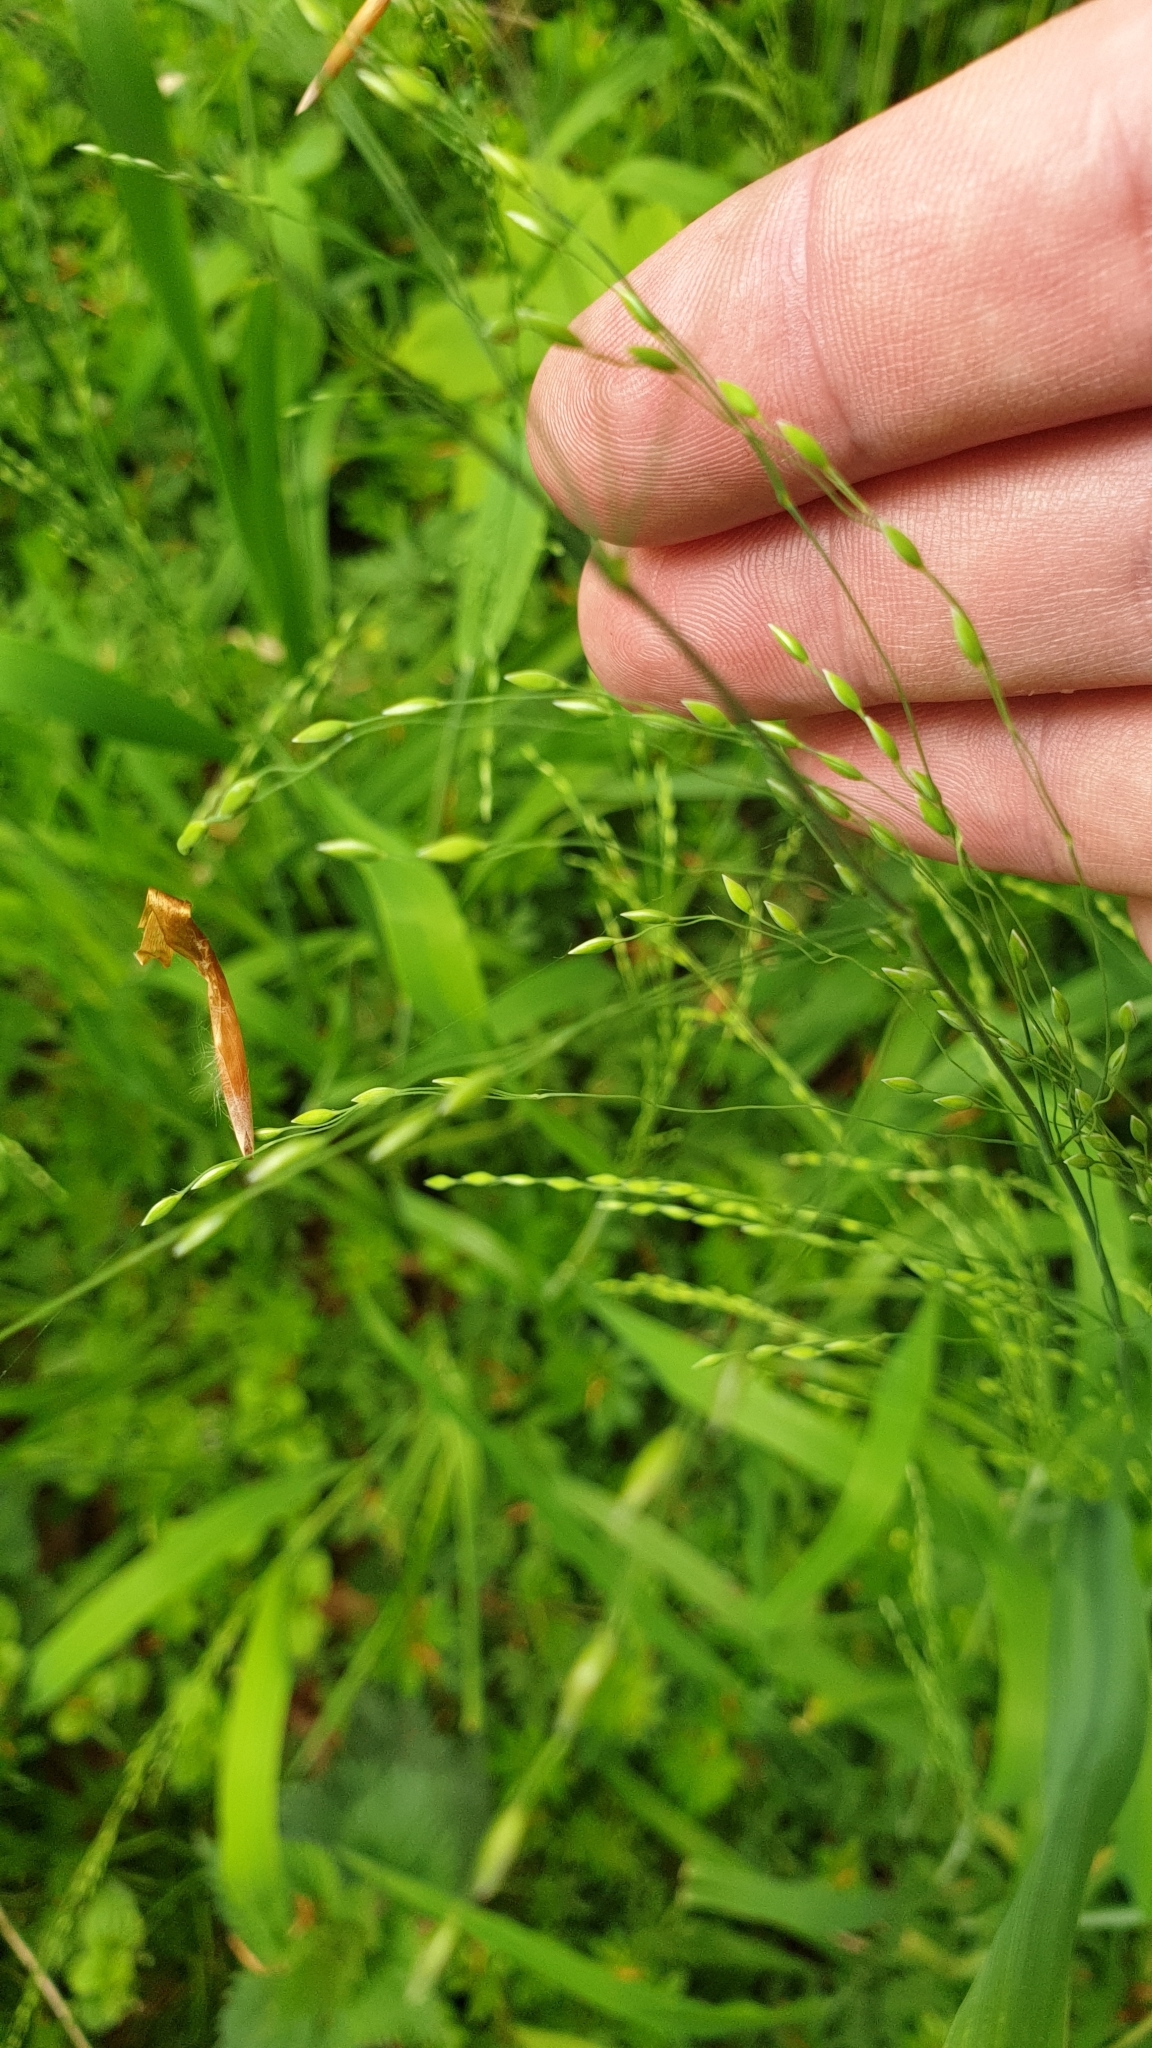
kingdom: Plantae
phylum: Tracheophyta
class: Liliopsida
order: Poales
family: Poaceae
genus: Milium
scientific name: Milium effusum
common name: Wood millet
